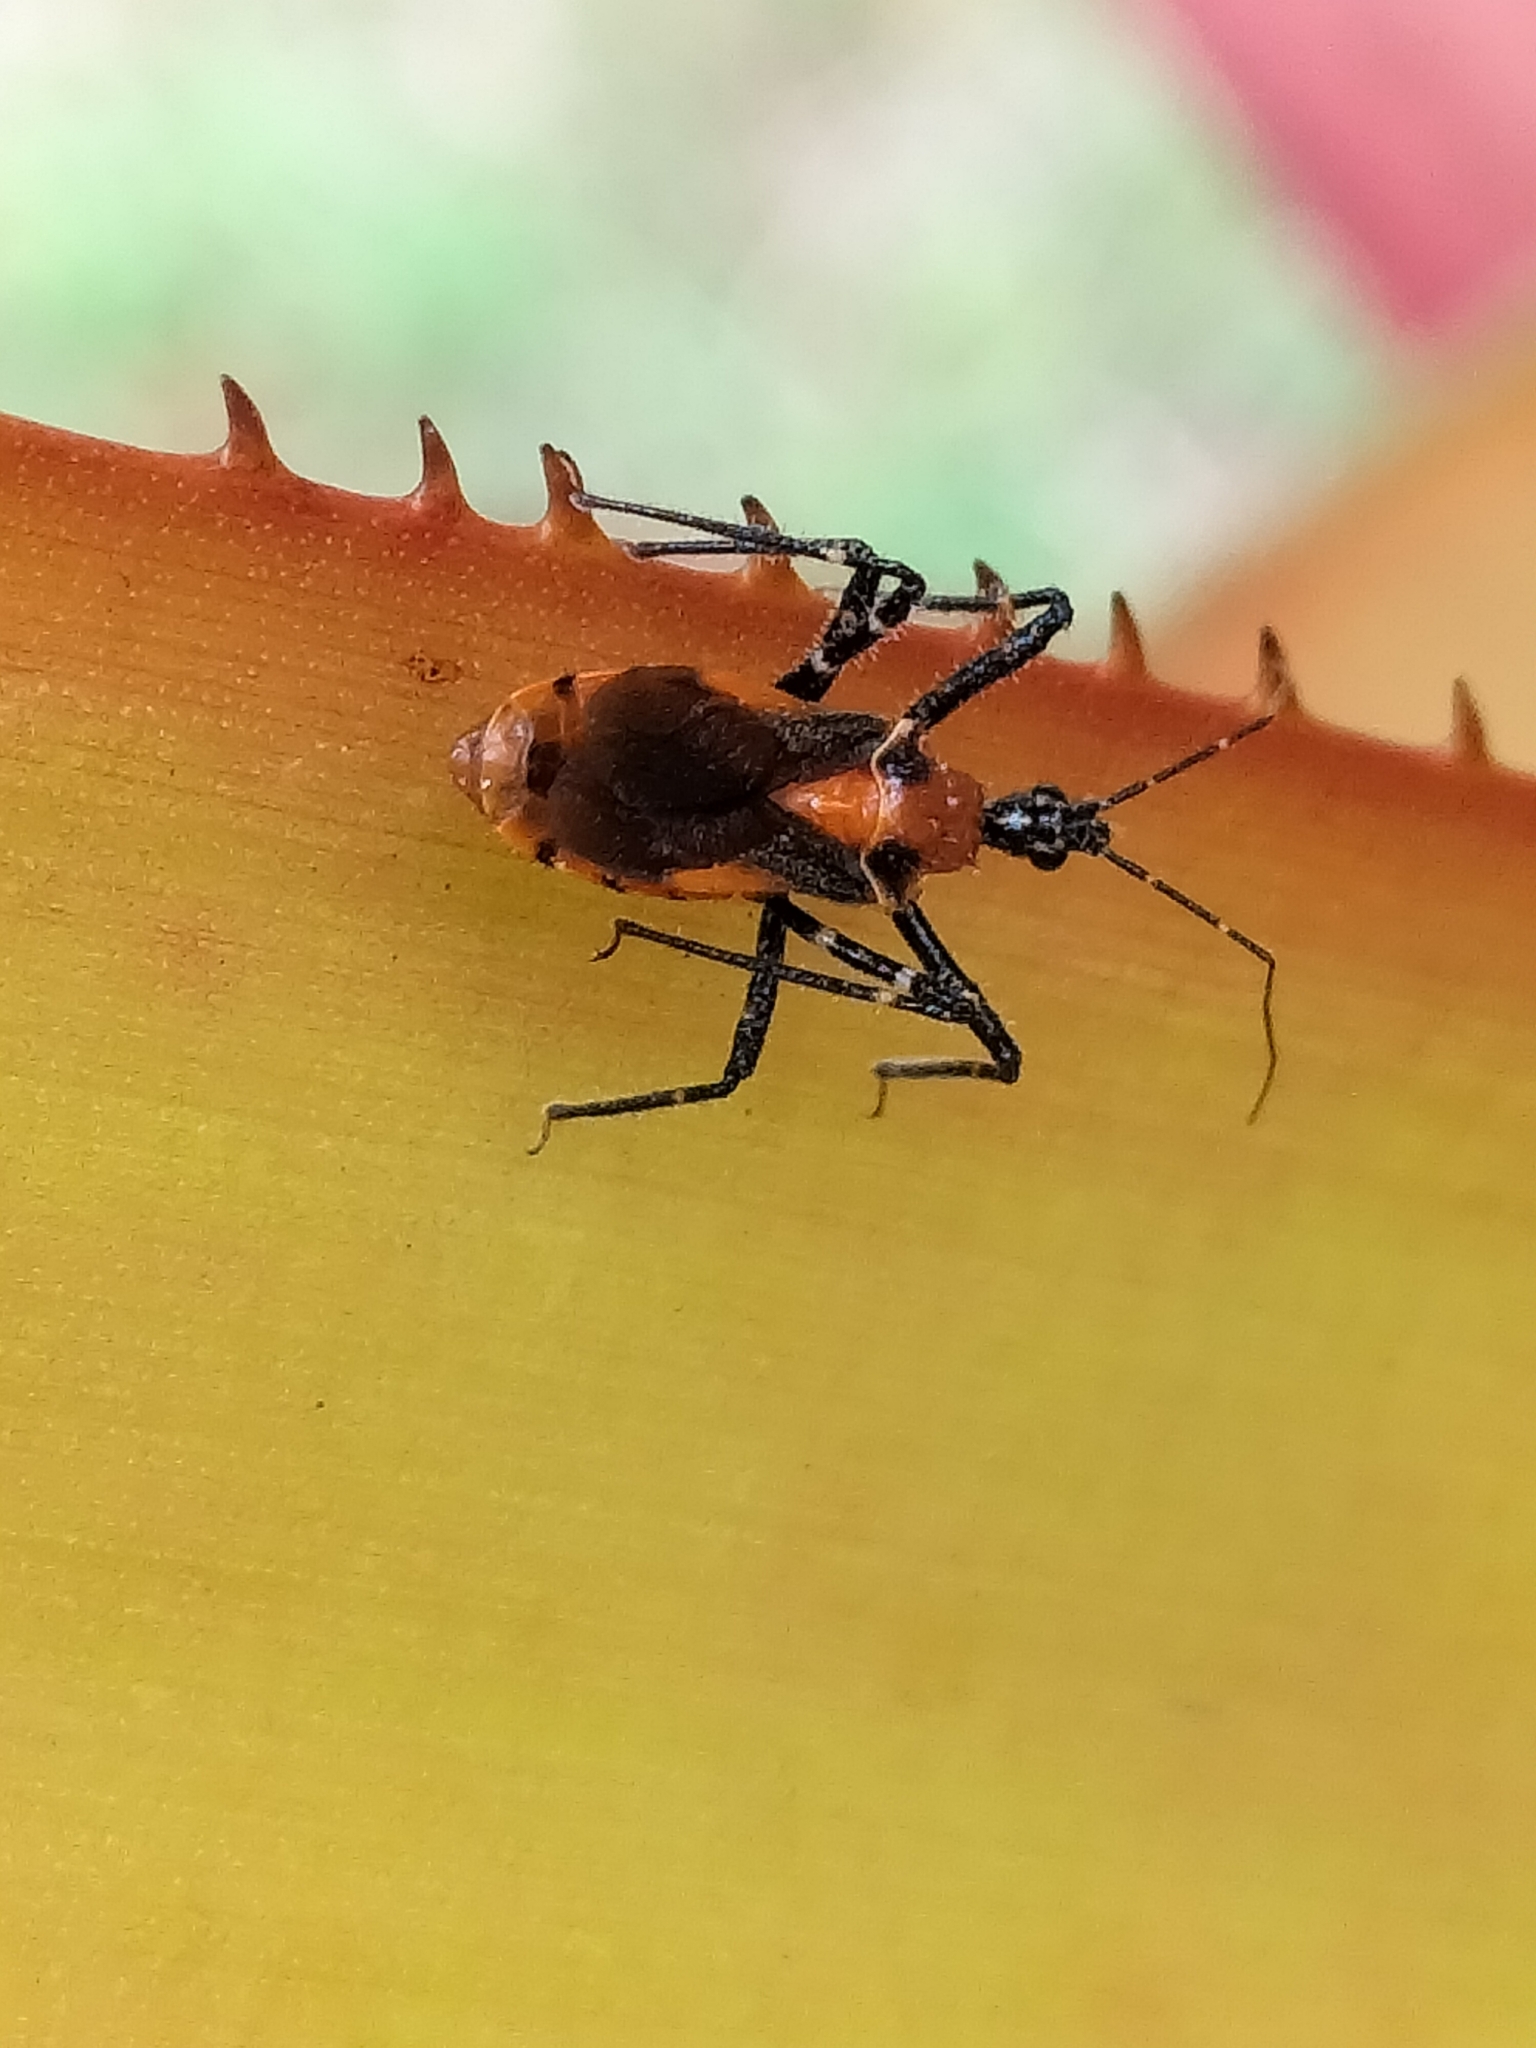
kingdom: Animalia
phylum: Arthropoda
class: Insecta
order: Hemiptera
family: Reduviidae
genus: Trachylestes
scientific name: Trachylestes aspericollis
